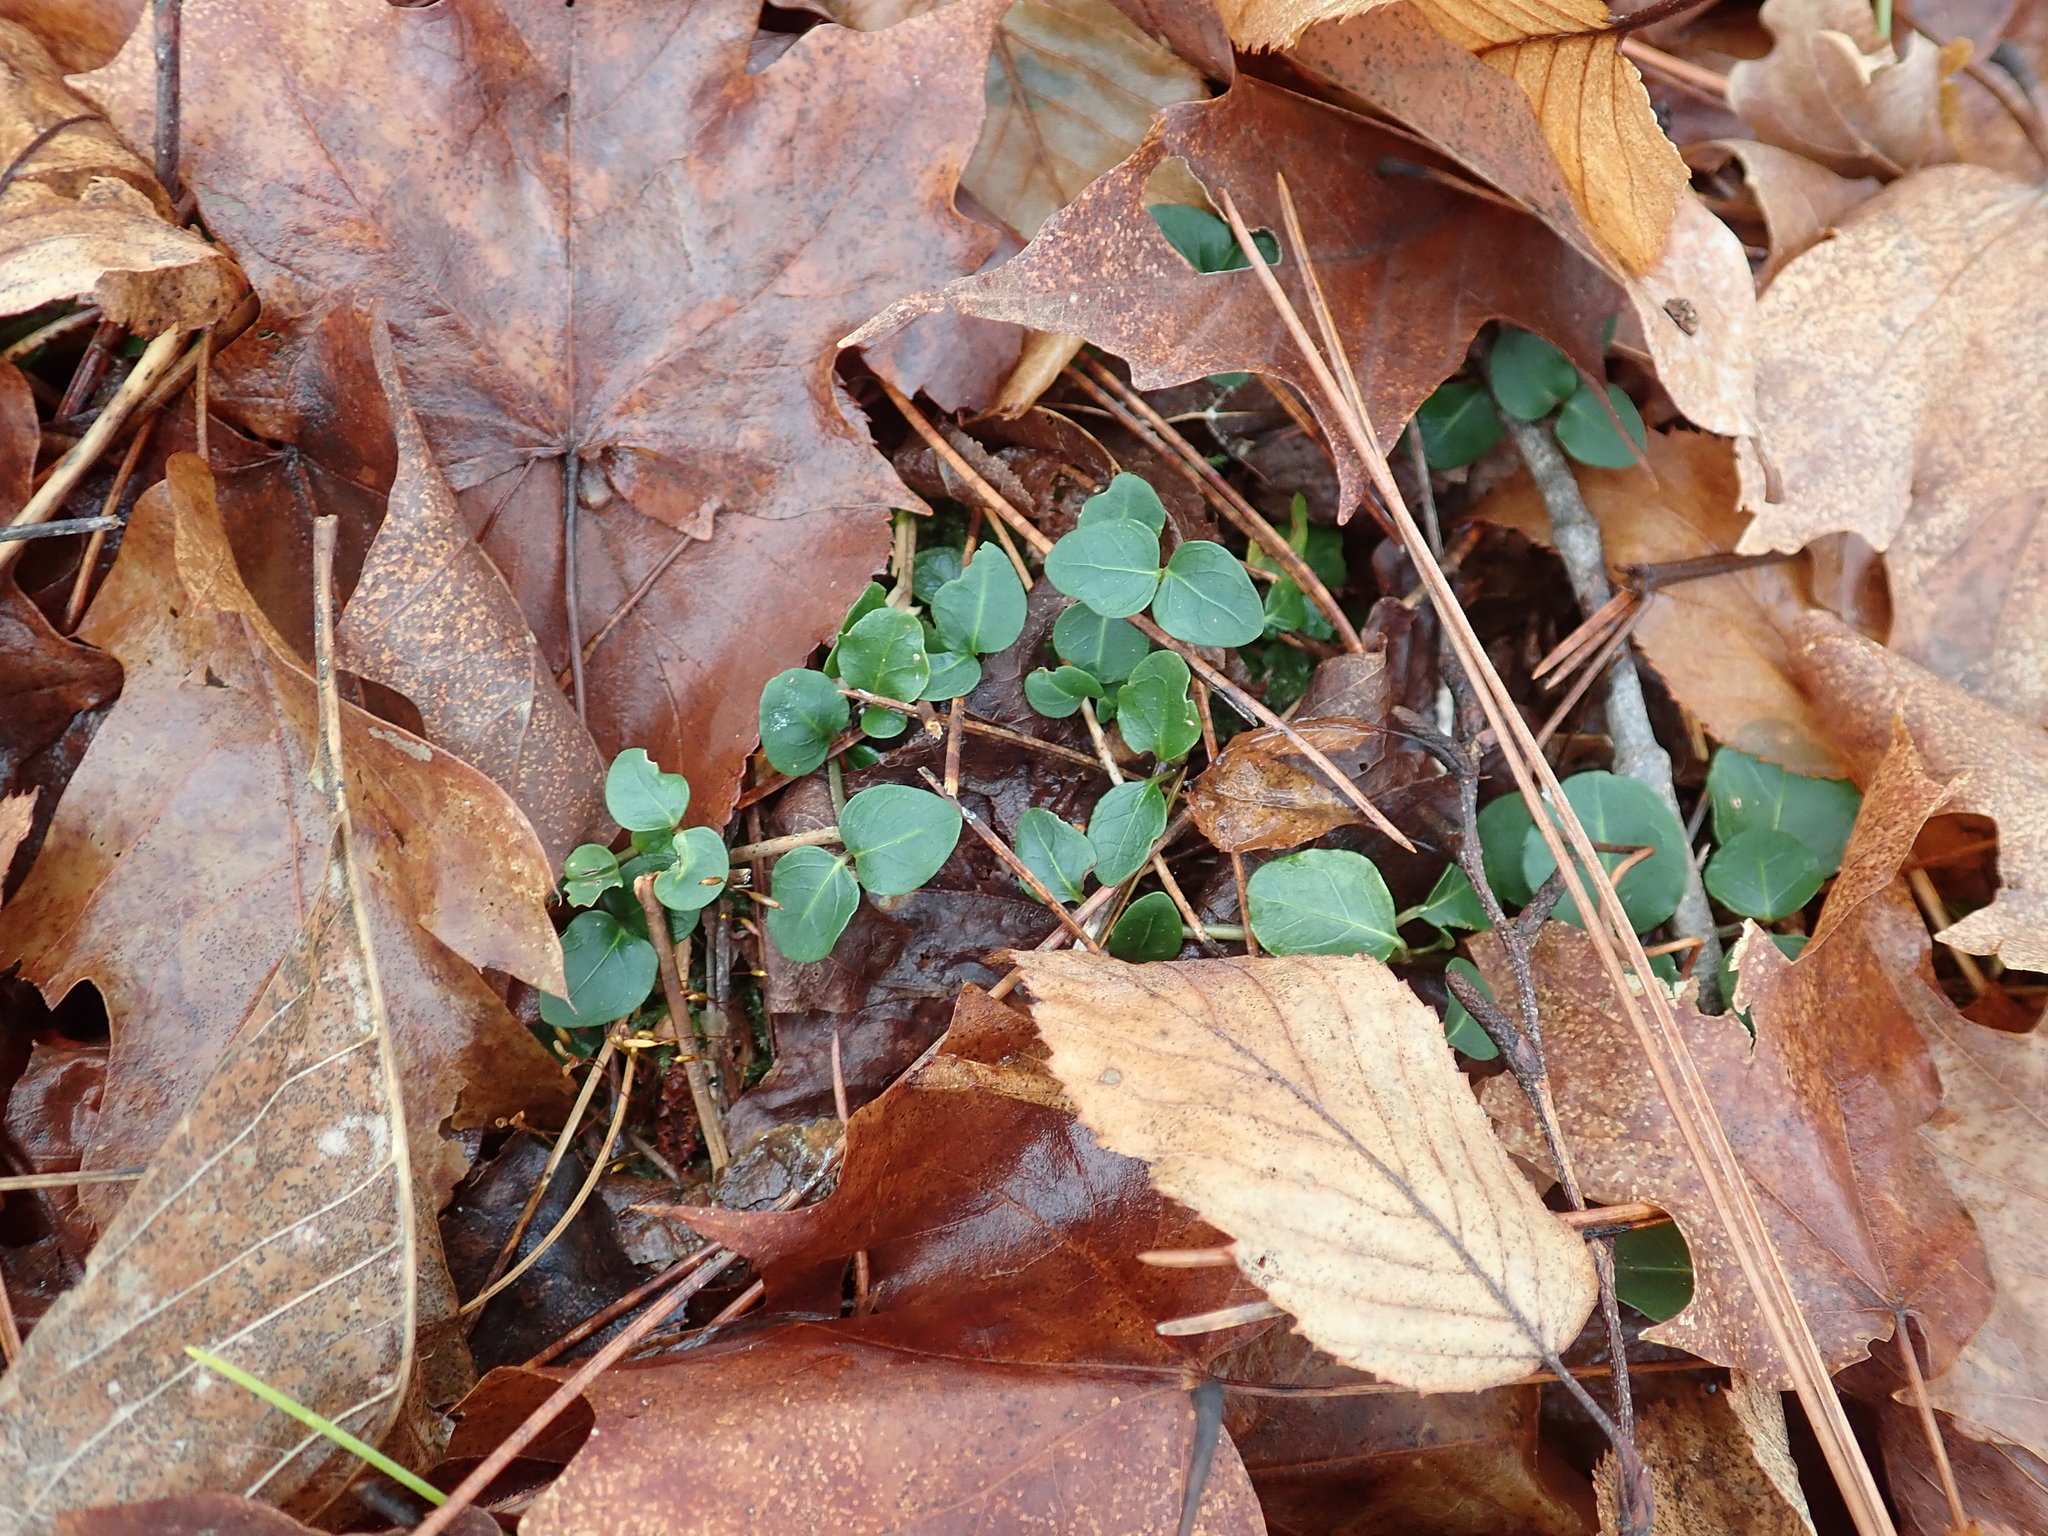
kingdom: Plantae
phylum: Tracheophyta
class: Magnoliopsida
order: Gentianales
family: Rubiaceae
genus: Mitchella
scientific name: Mitchella repens
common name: Partridge-berry
